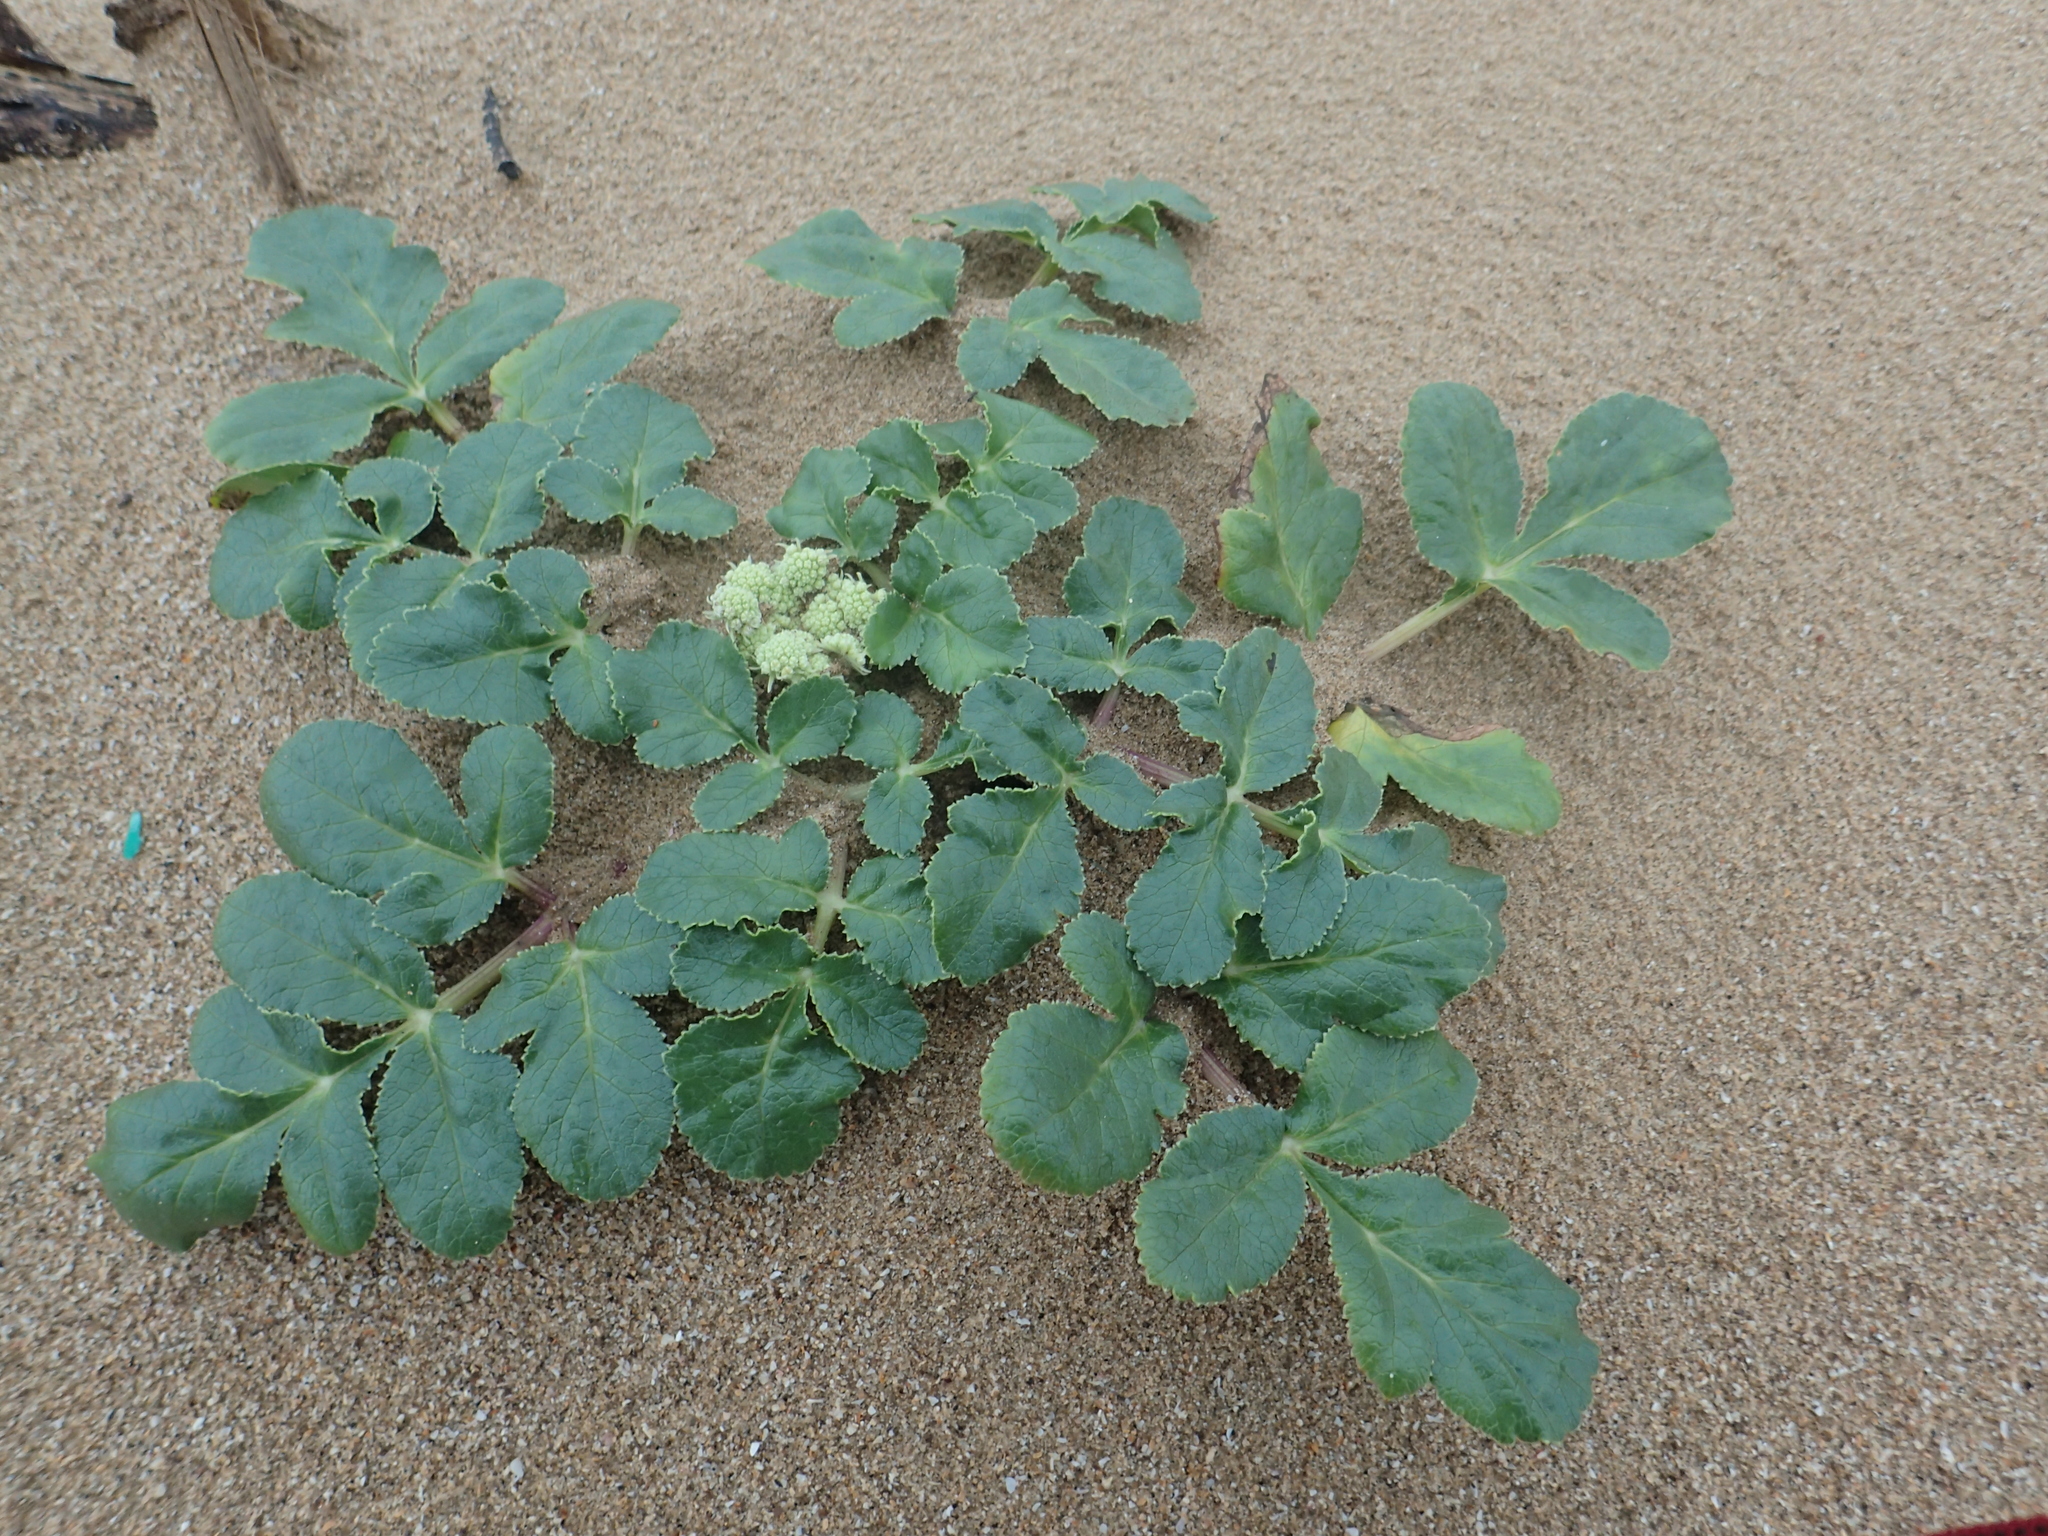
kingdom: Plantae
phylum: Tracheophyta
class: Magnoliopsida
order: Apiales
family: Apiaceae
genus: Glehnia
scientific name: Glehnia littoralis
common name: Beach silvertop
